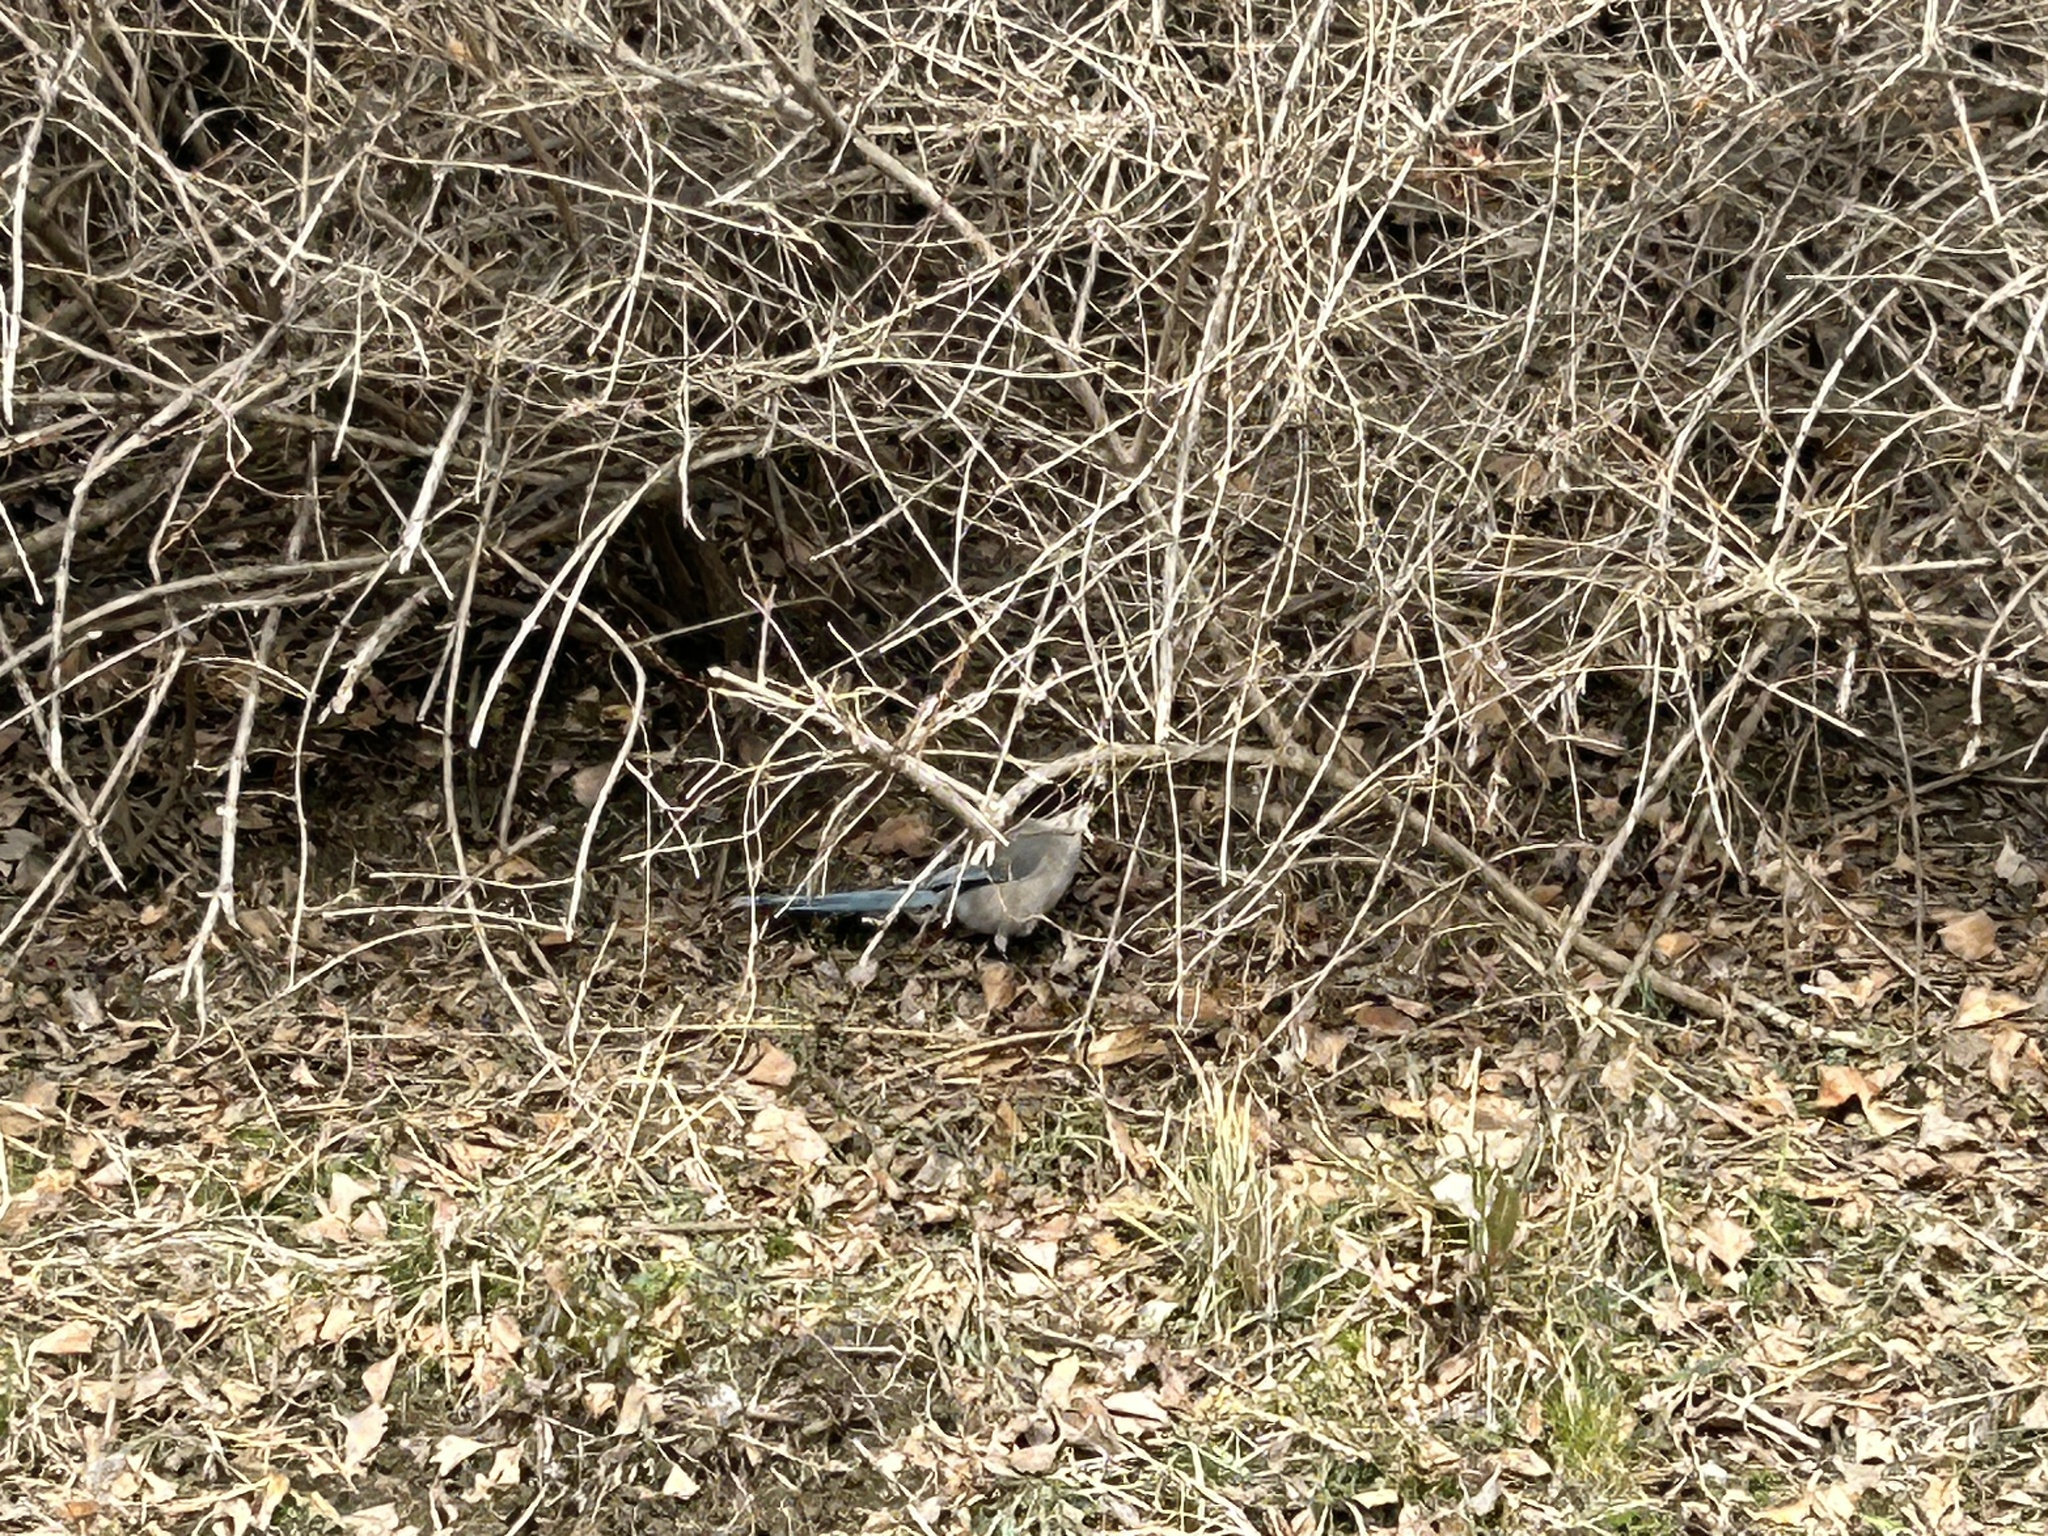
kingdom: Animalia
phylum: Chordata
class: Aves
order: Passeriformes
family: Corvidae
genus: Cyanopica
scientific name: Cyanopica cyanus
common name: Azure-winged magpie
